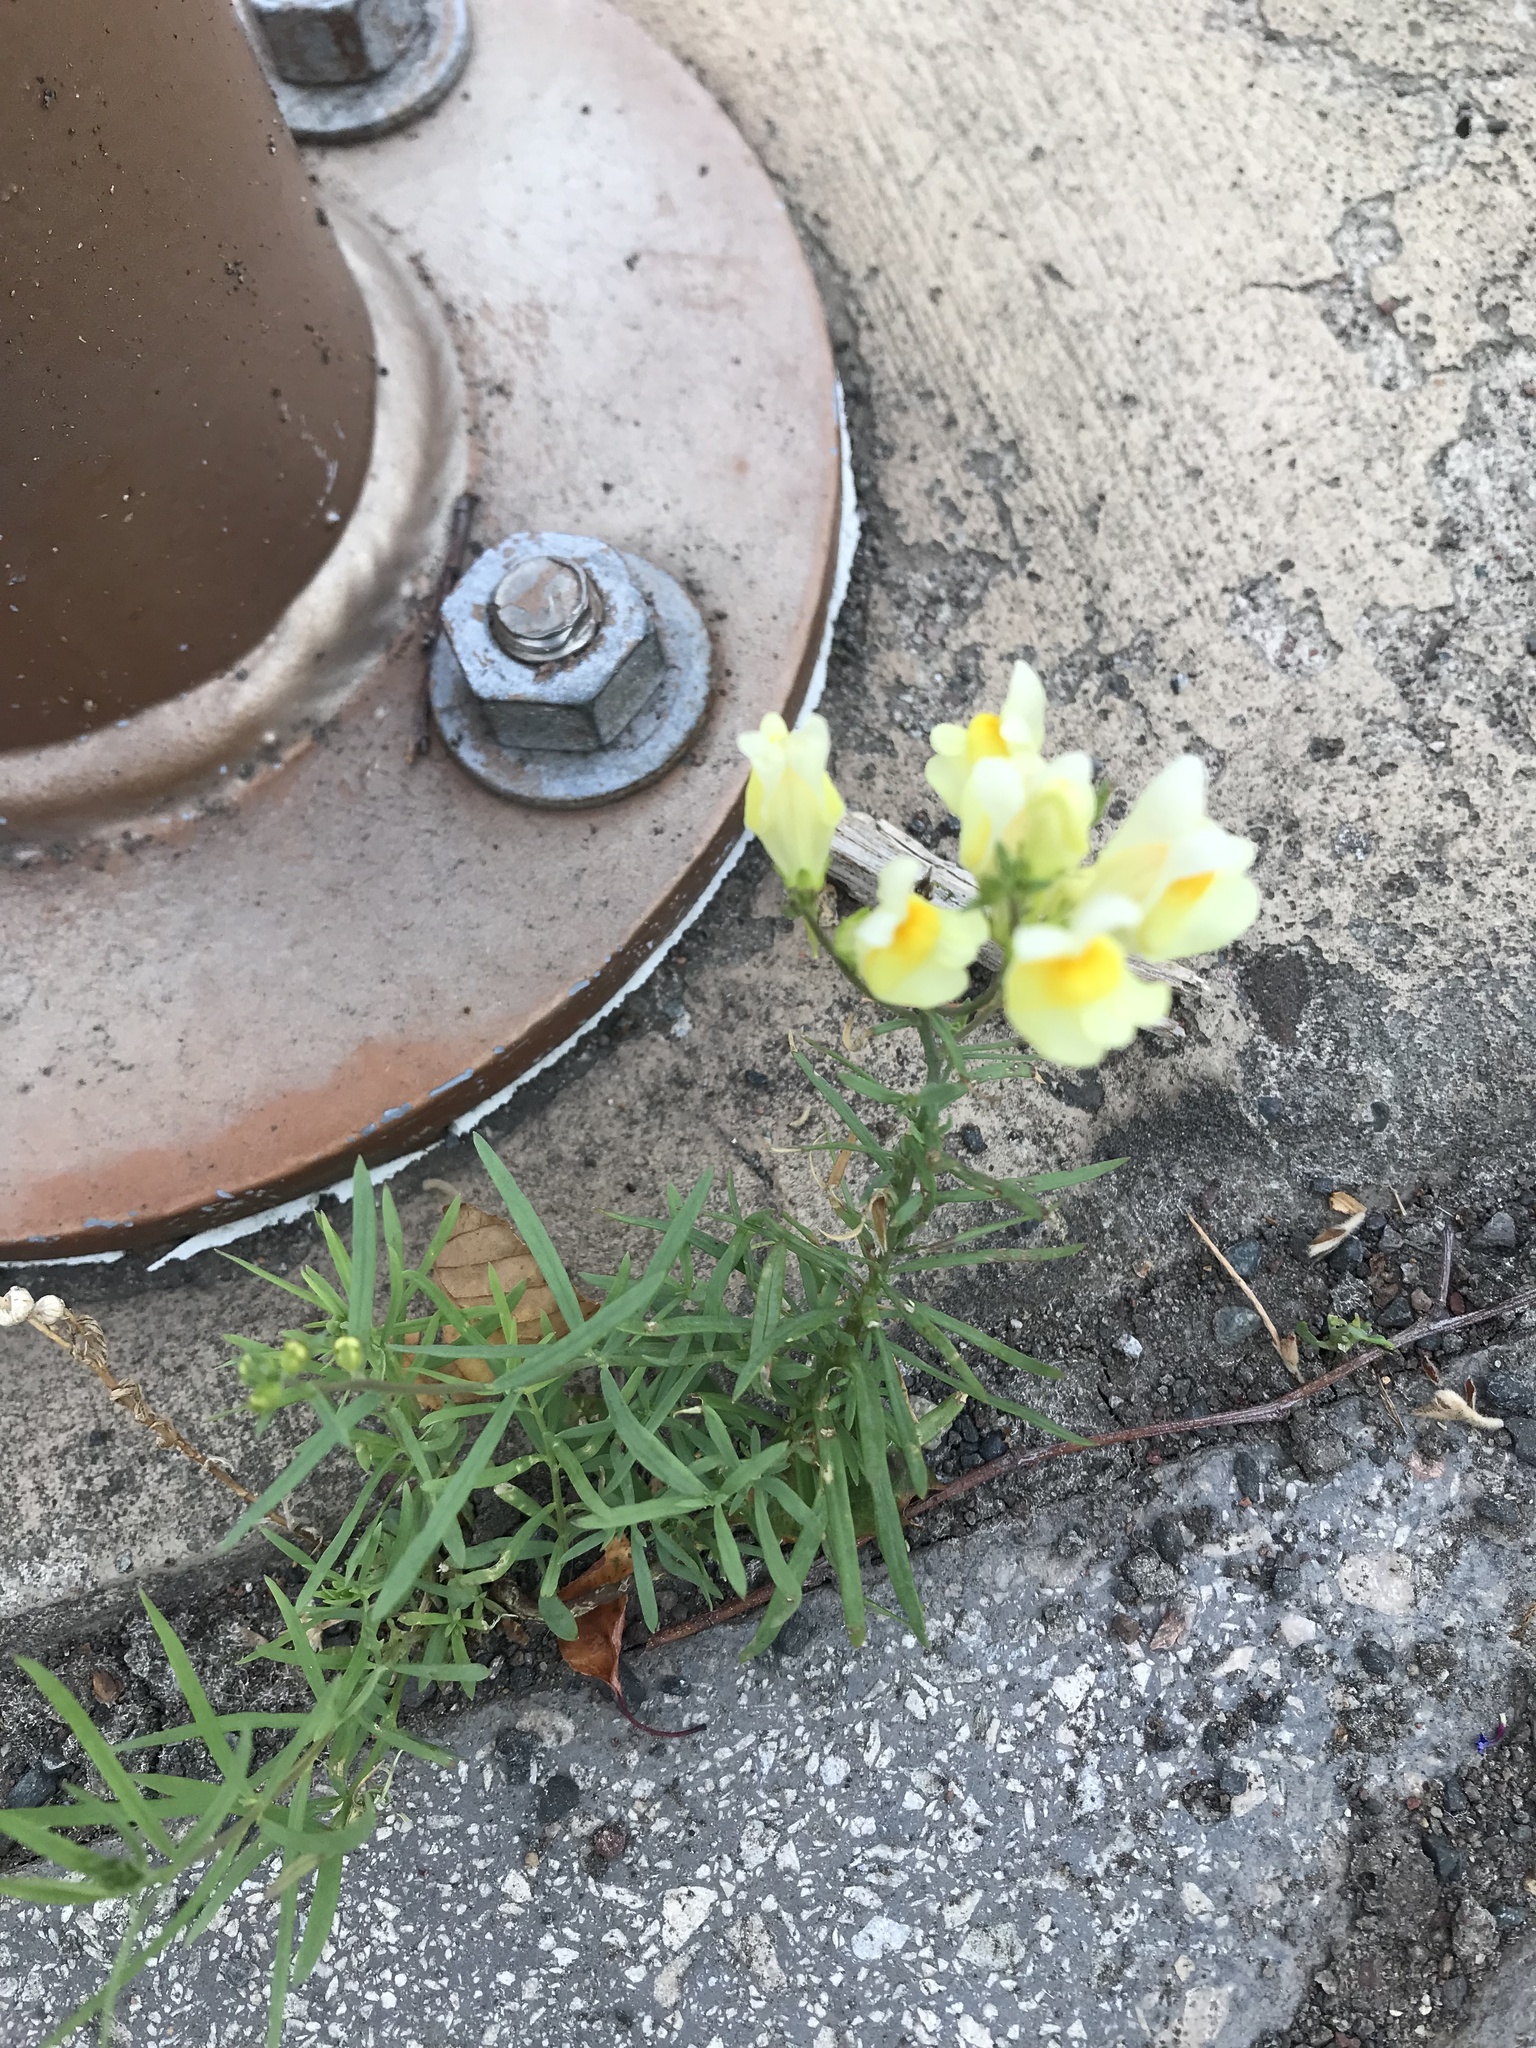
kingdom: Plantae
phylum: Tracheophyta
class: Magnoliopsida
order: Lamiales
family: Plantaginaceae
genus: Linaria
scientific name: Linaria vulgaris
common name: Butter and eggs
